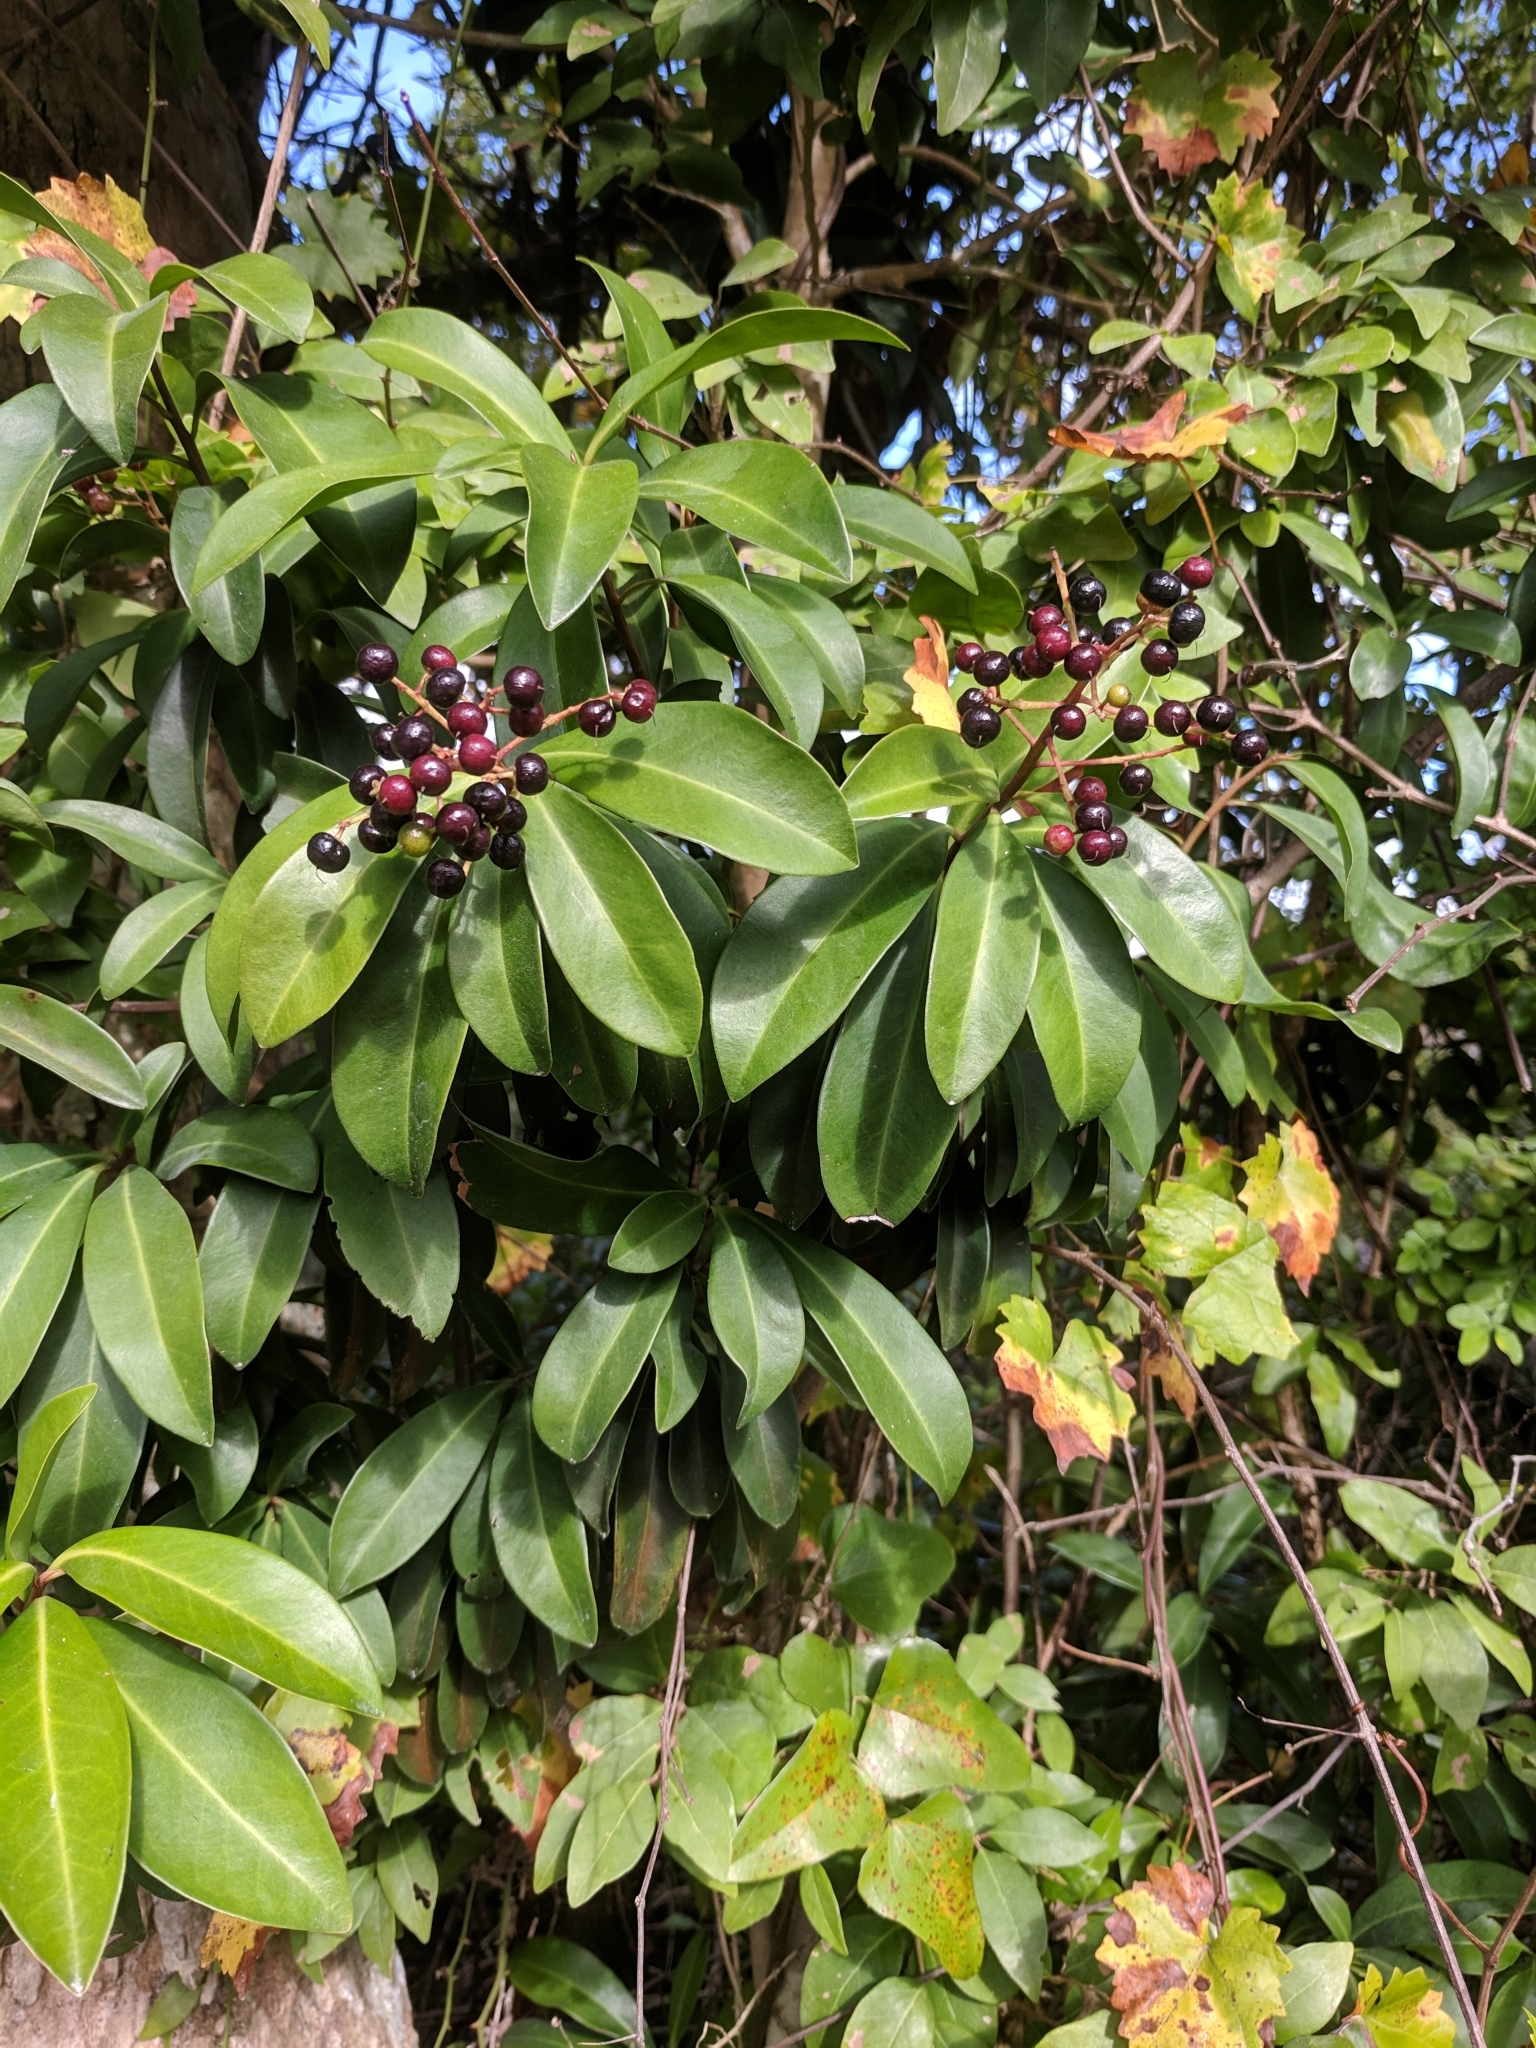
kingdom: Plantae
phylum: Tracheophyta
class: Magnoliopsida
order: Ericales
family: Primulaceae
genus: Ardisia
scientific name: Ardisia escallonioides
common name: Island marlberry
